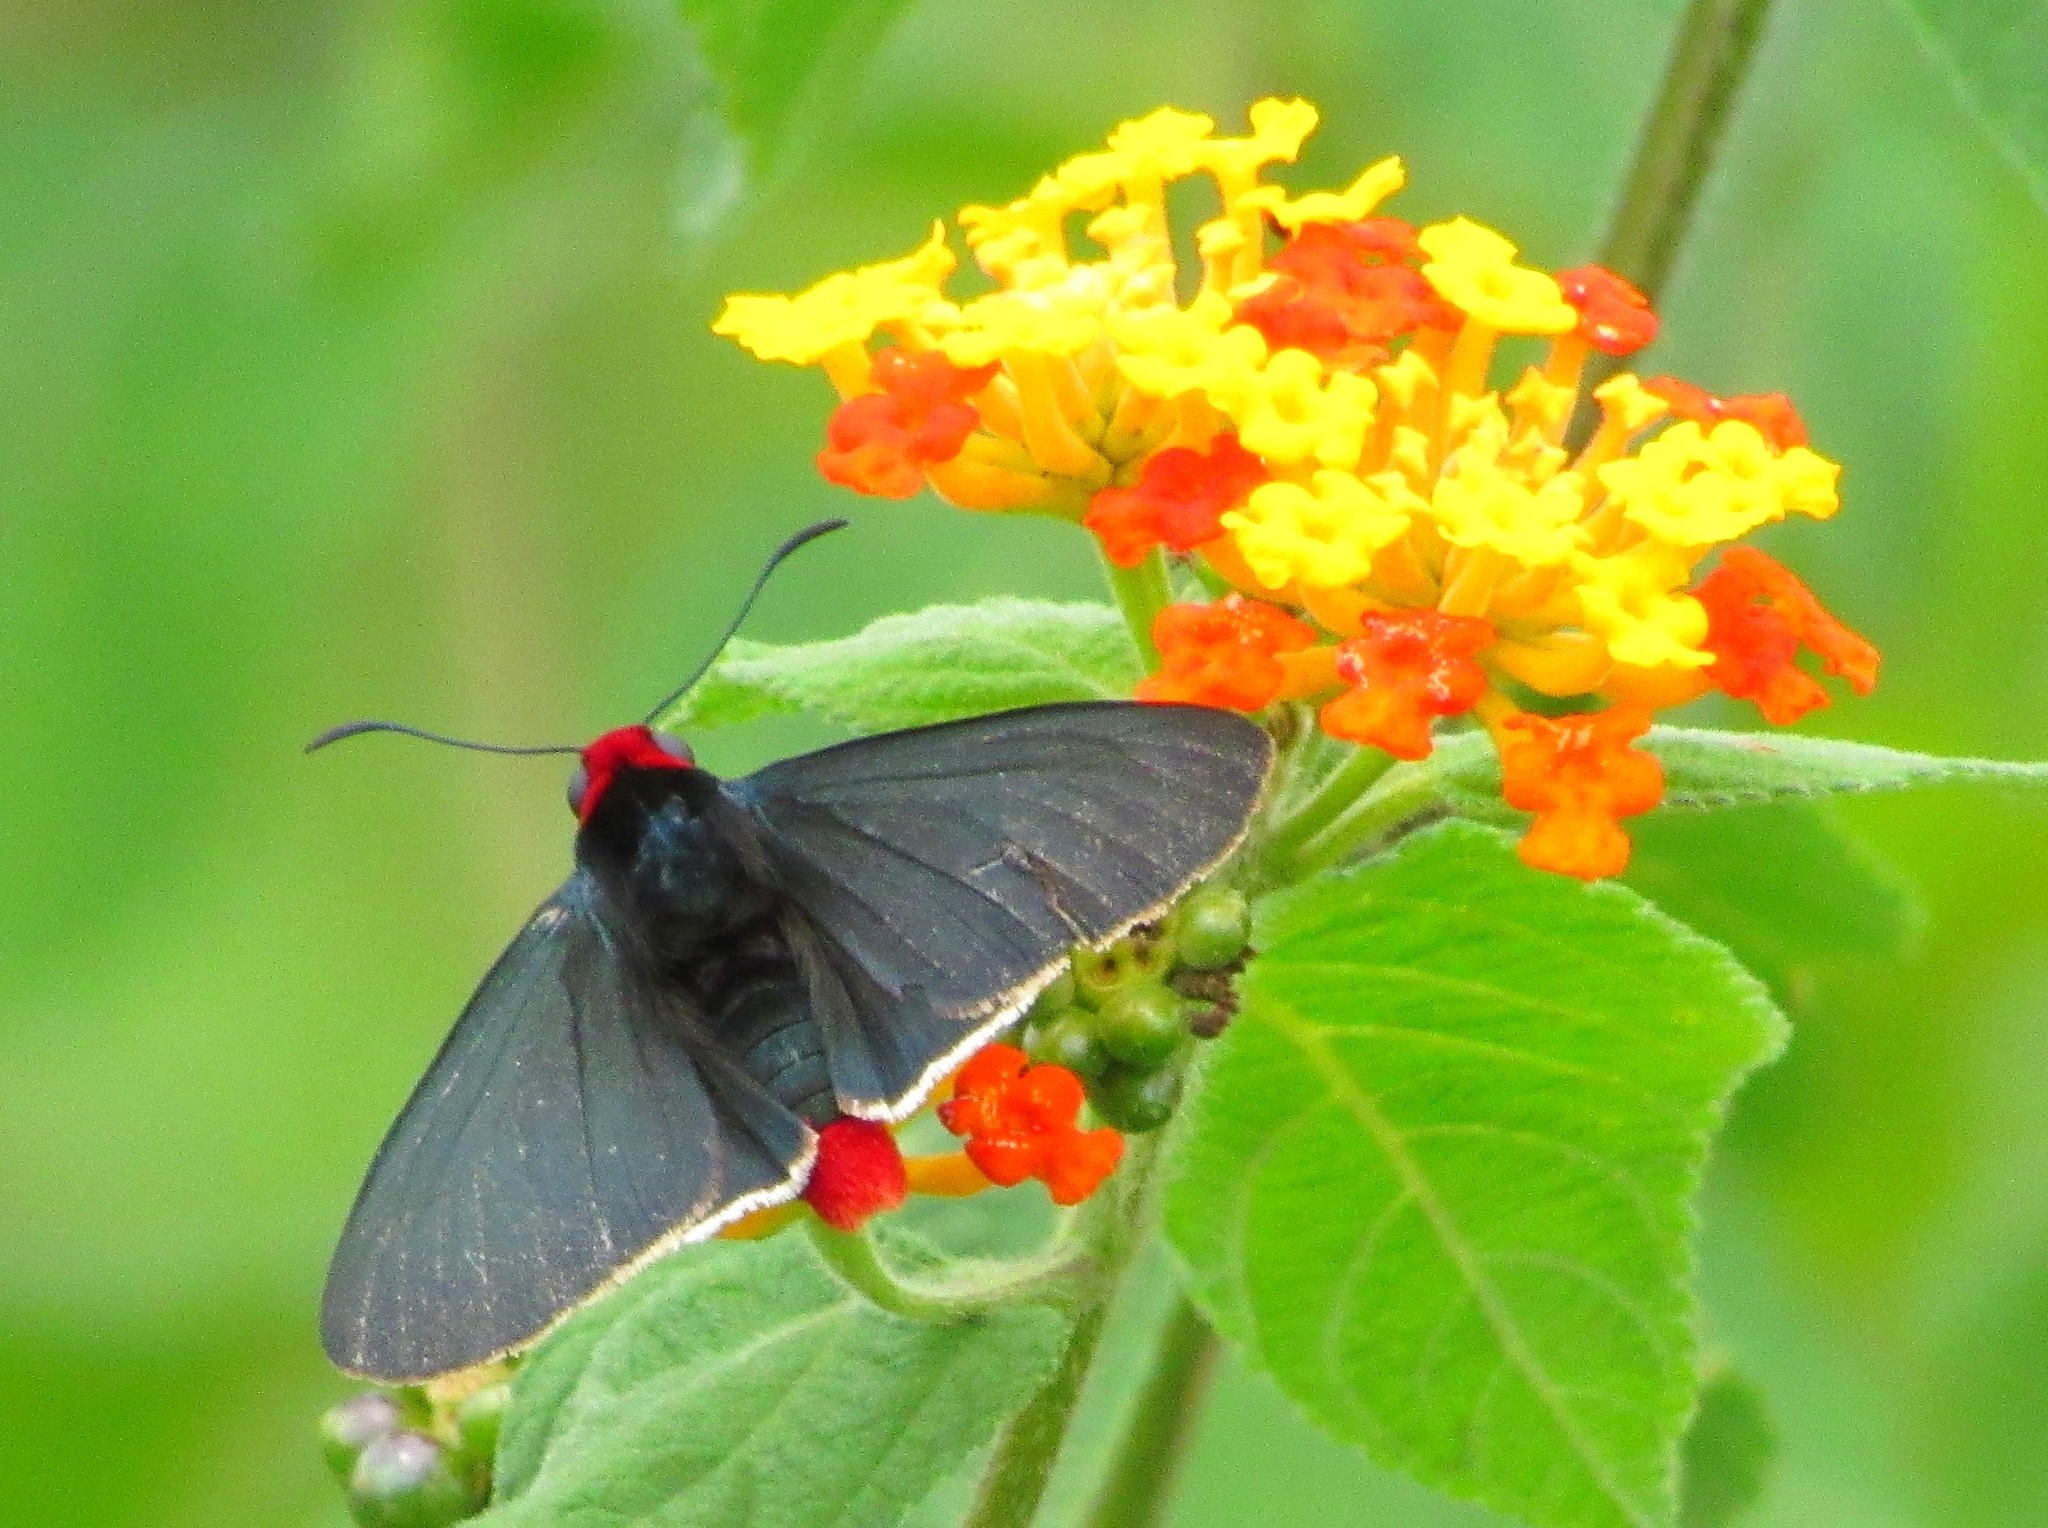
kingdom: Animalia
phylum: Arthropoda
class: Insecta
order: Lepidoptera
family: Hesperiidae
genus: Pyrrhopyge
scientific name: Pyrrhopyge charybdis
